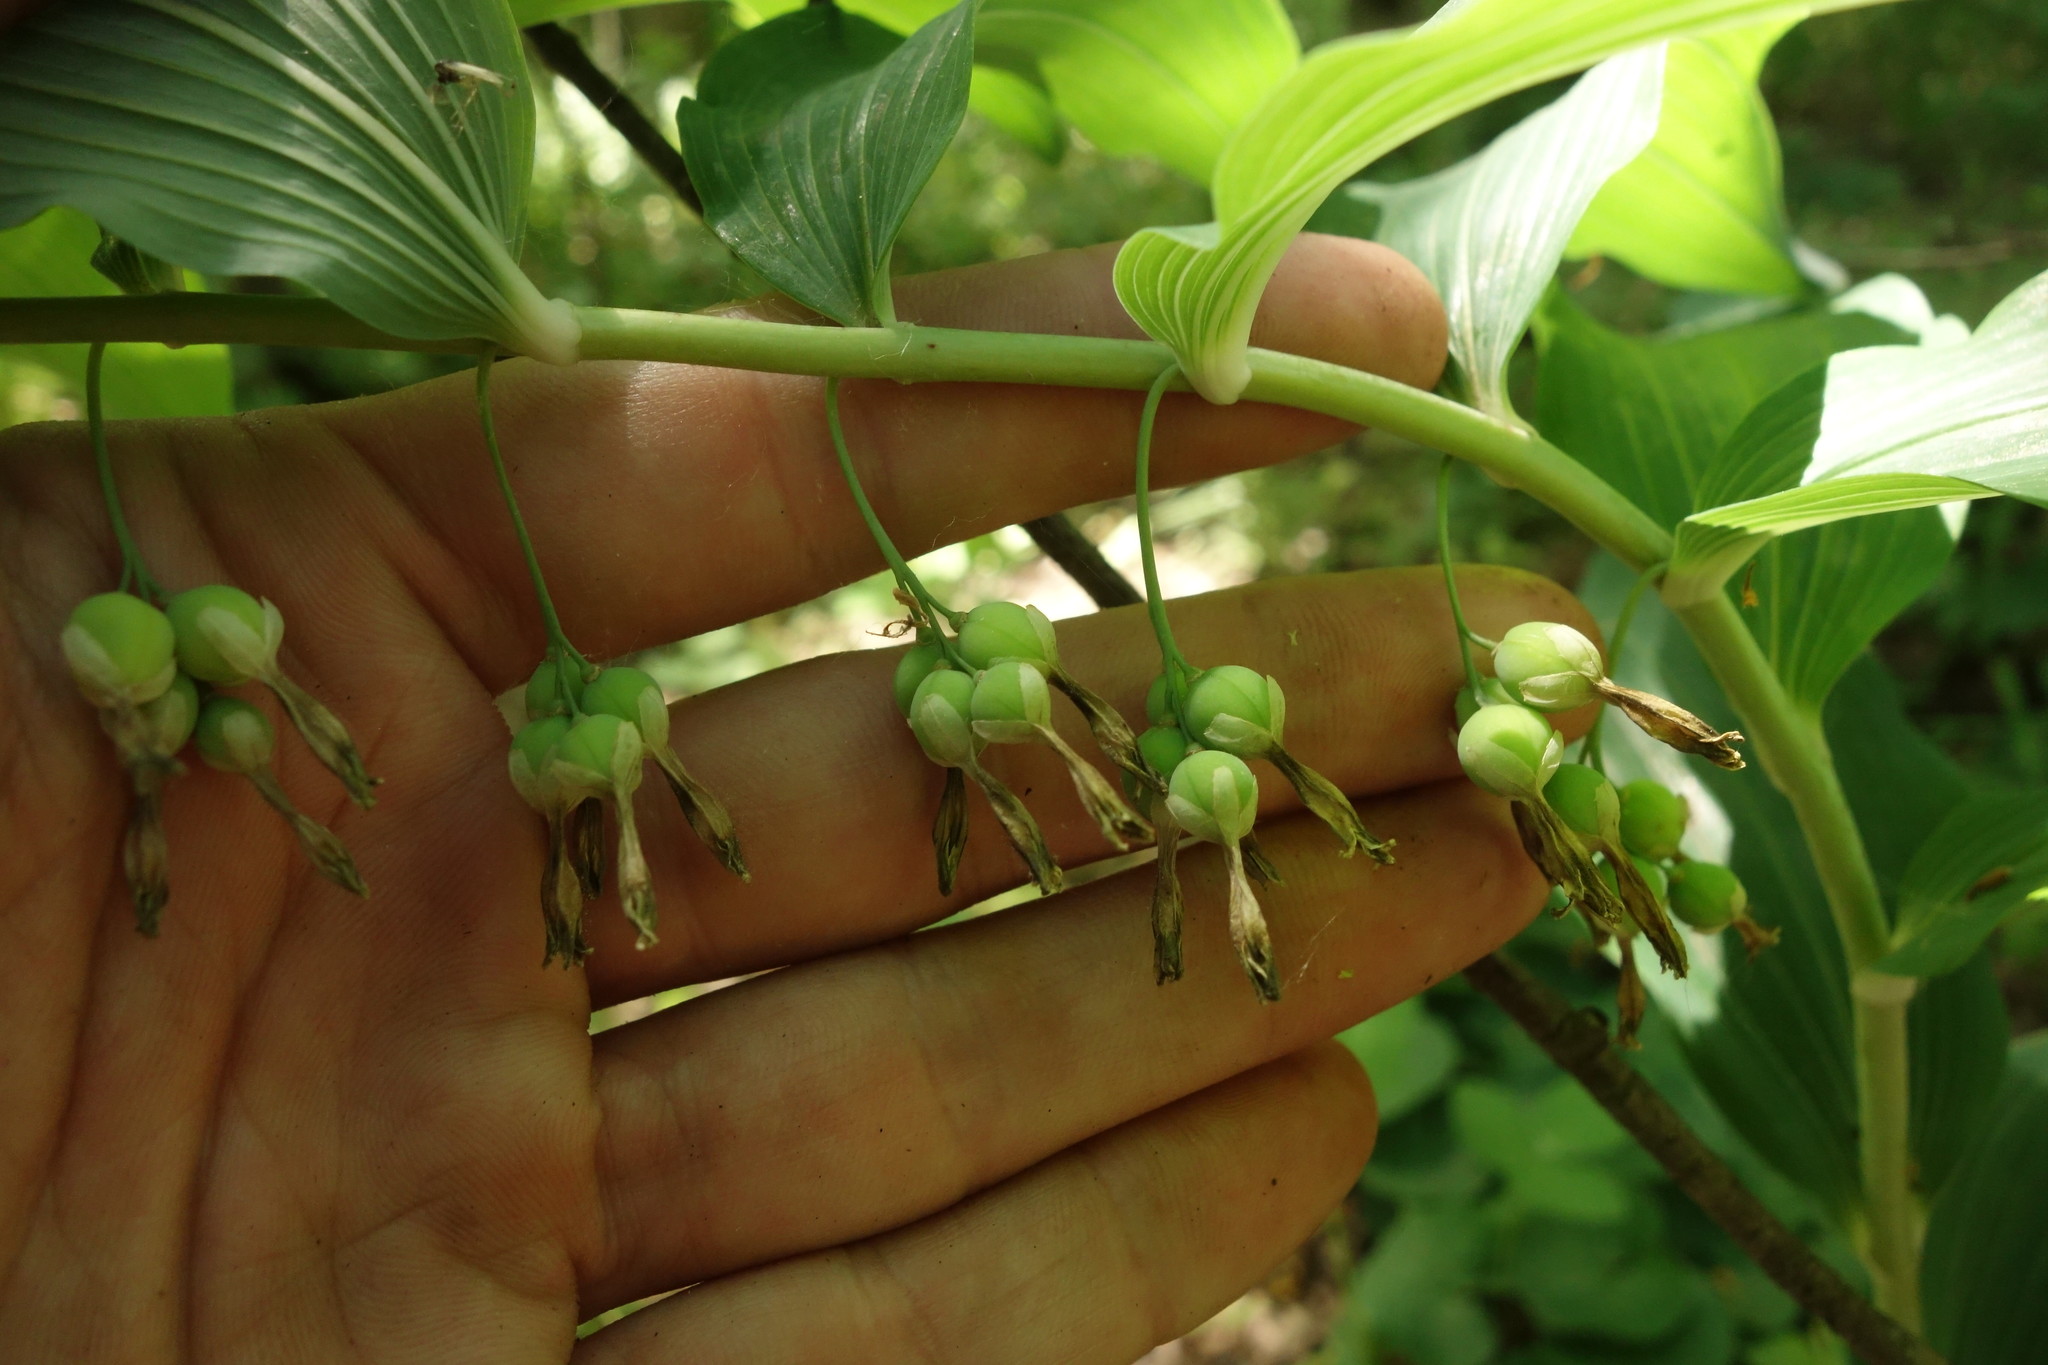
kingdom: Plantae
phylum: Tracheophyta
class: Liliopsida
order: Asparagales
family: Asparagaceae
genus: Polygonatum
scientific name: Polygonatum multiflorum
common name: Solomon's-seal
